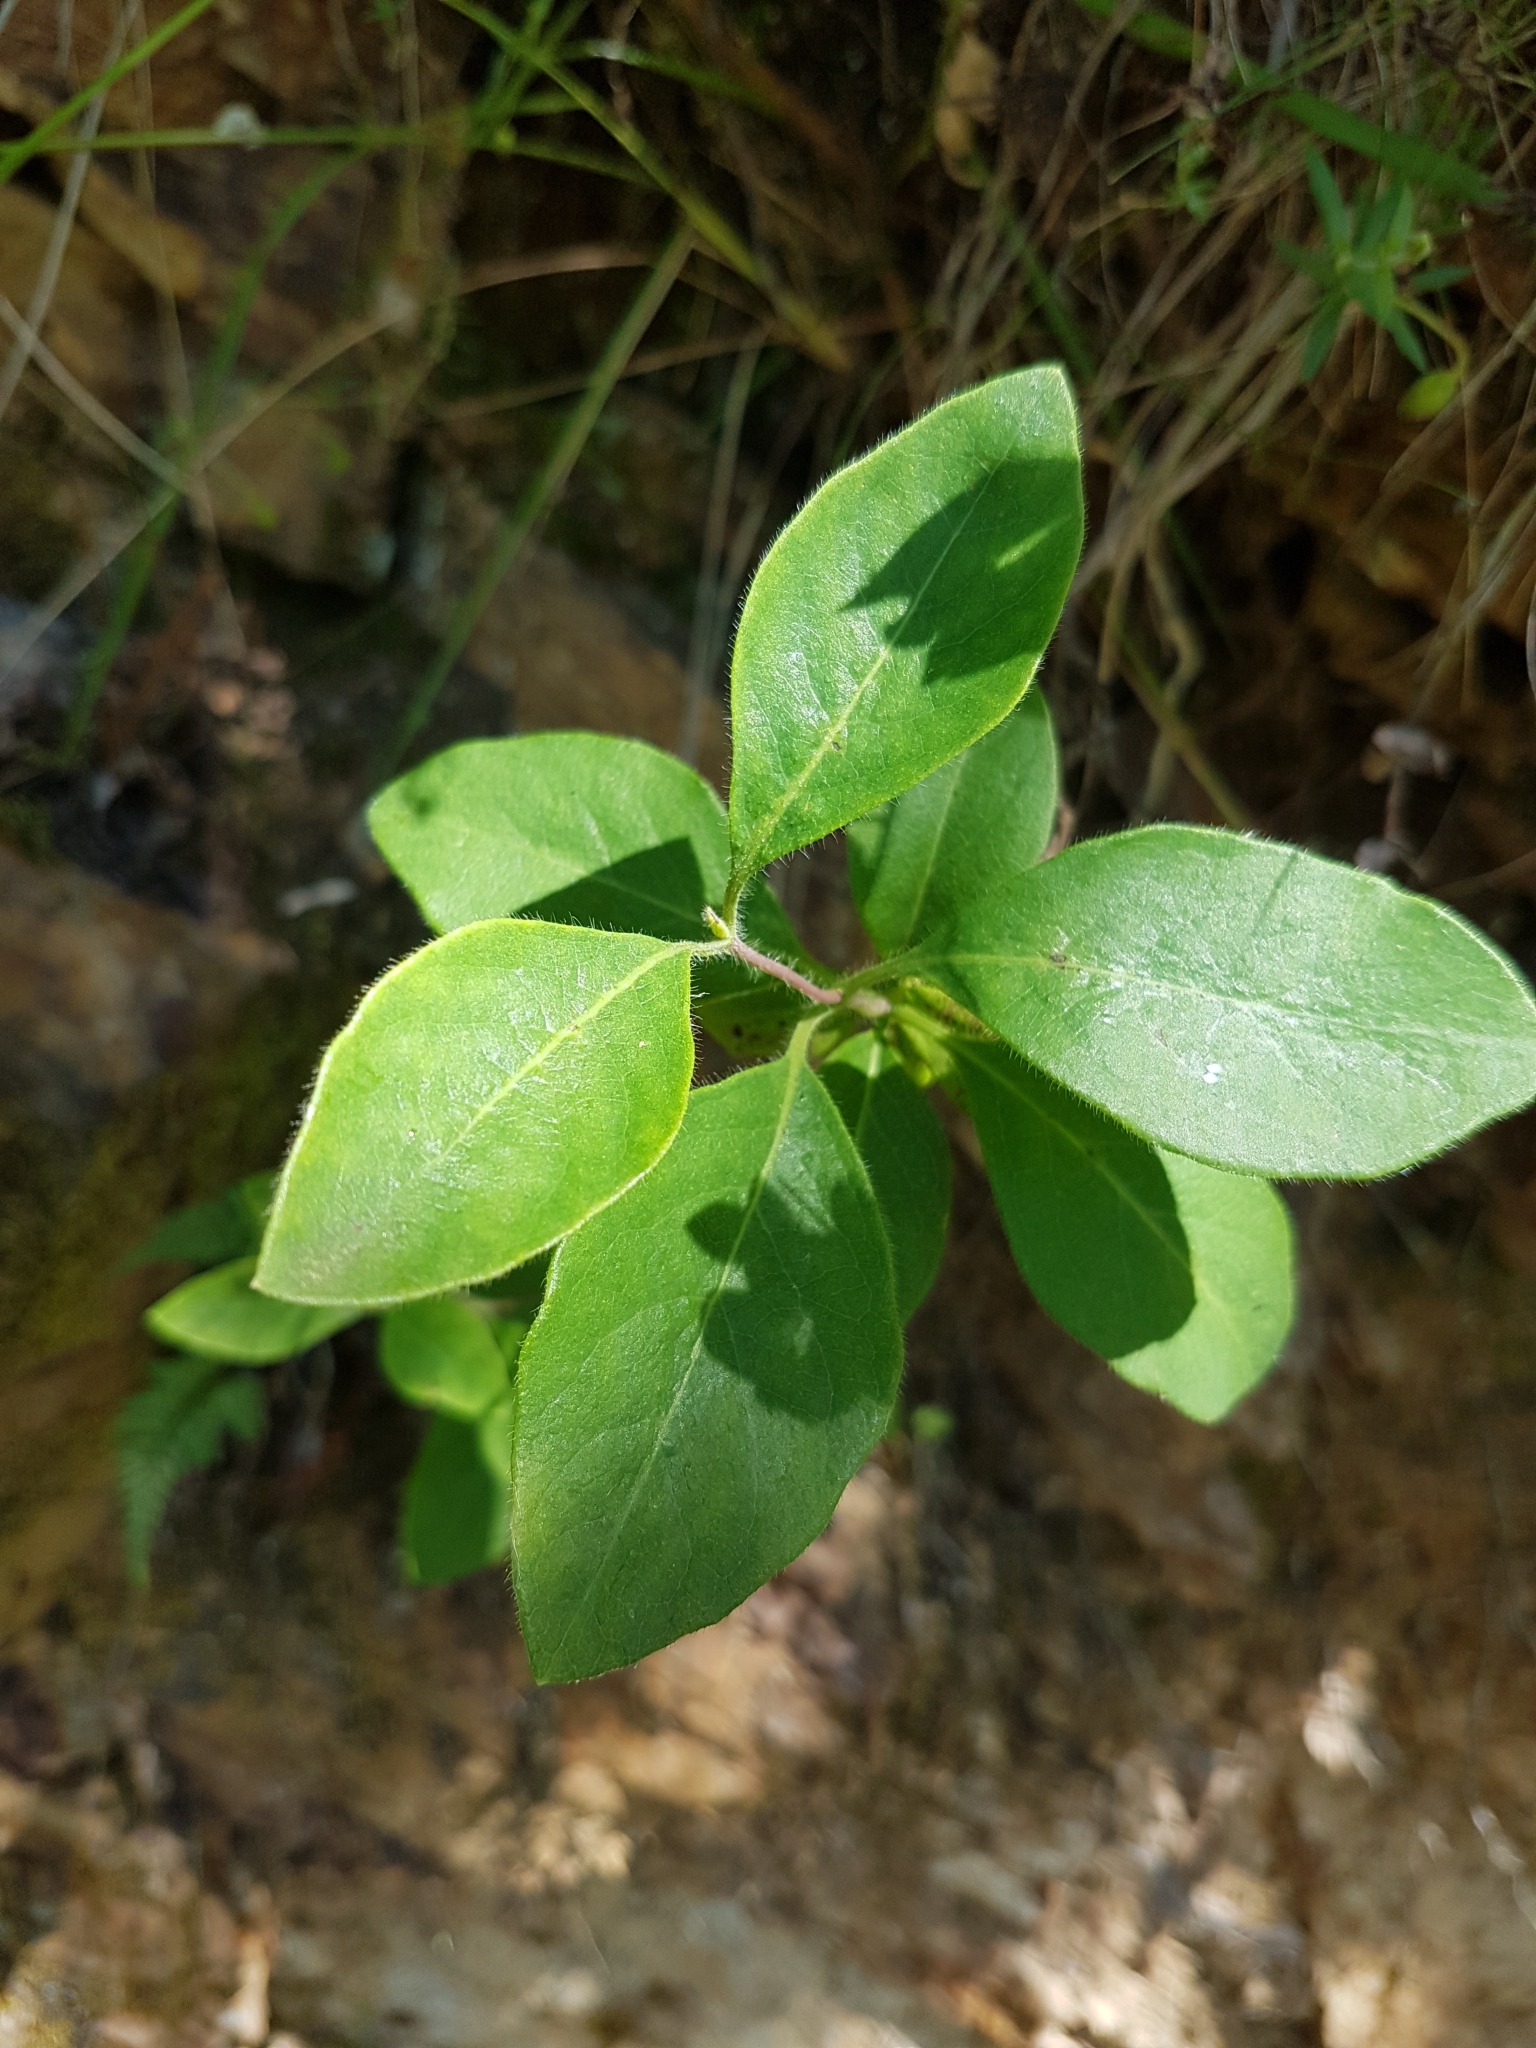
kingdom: Plantae
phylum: Tracheophyta
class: Magnoliopsida
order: Dipsacales
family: Caprifoliaceae
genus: Lonicera
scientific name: Lonicera periclymenum
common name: European honeysuckle
